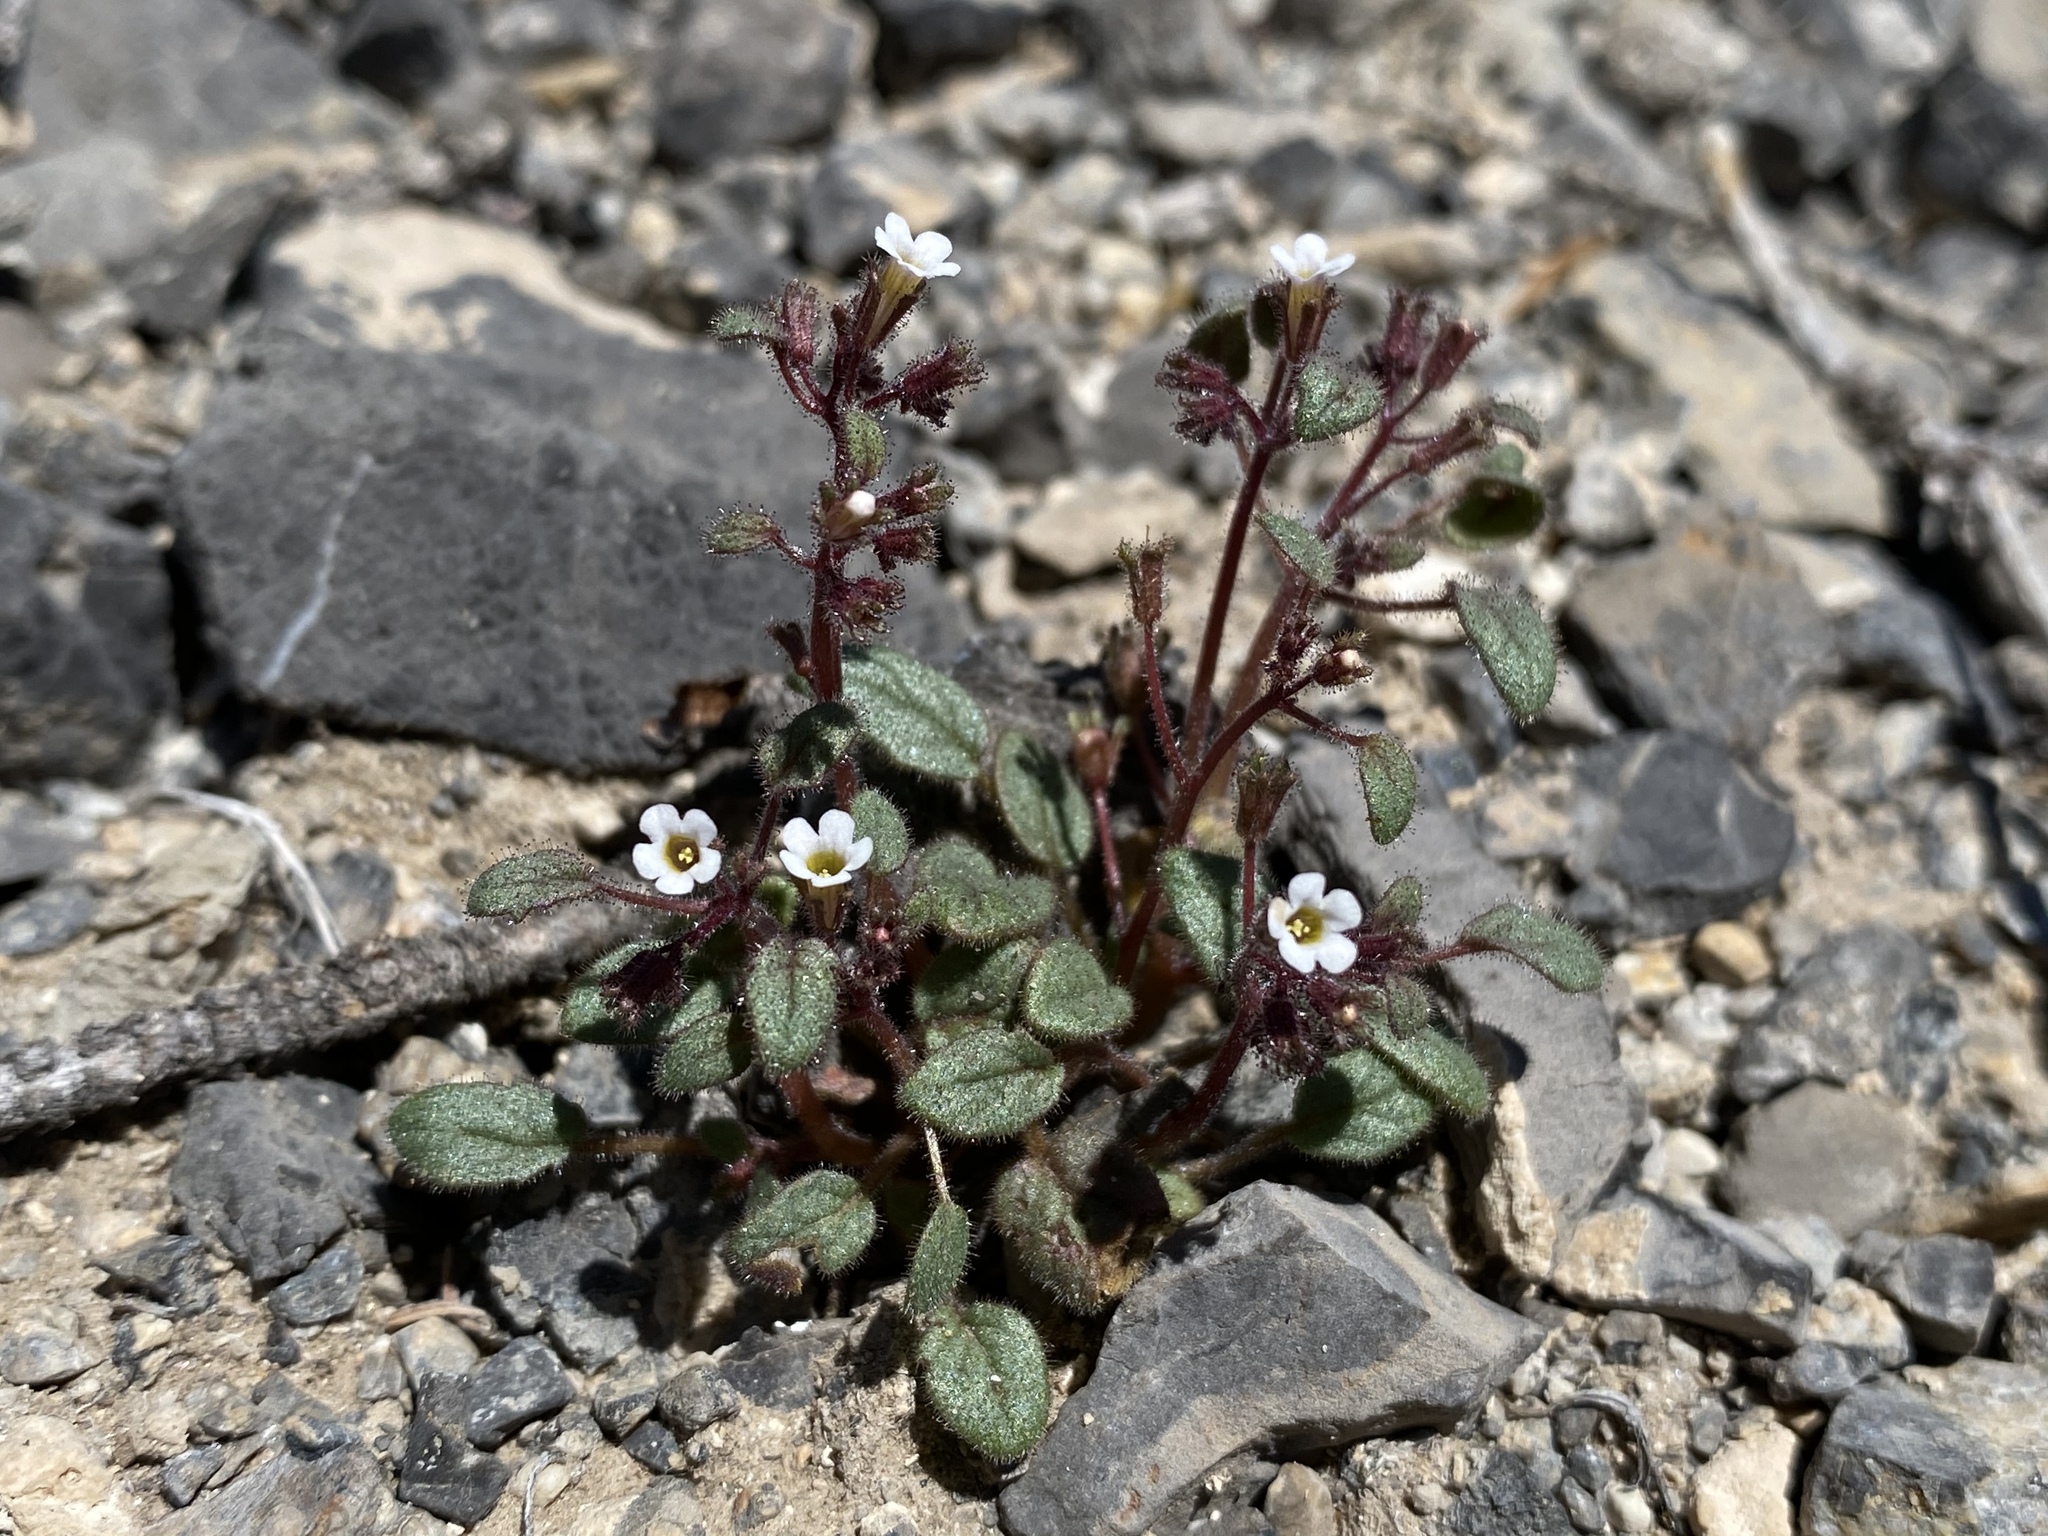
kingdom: Plantae
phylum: Tracheophyta
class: Magnoliopsida
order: Boraginales
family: Hydrophyllaceae
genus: Phacelia
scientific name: Phacelia barnebyana
